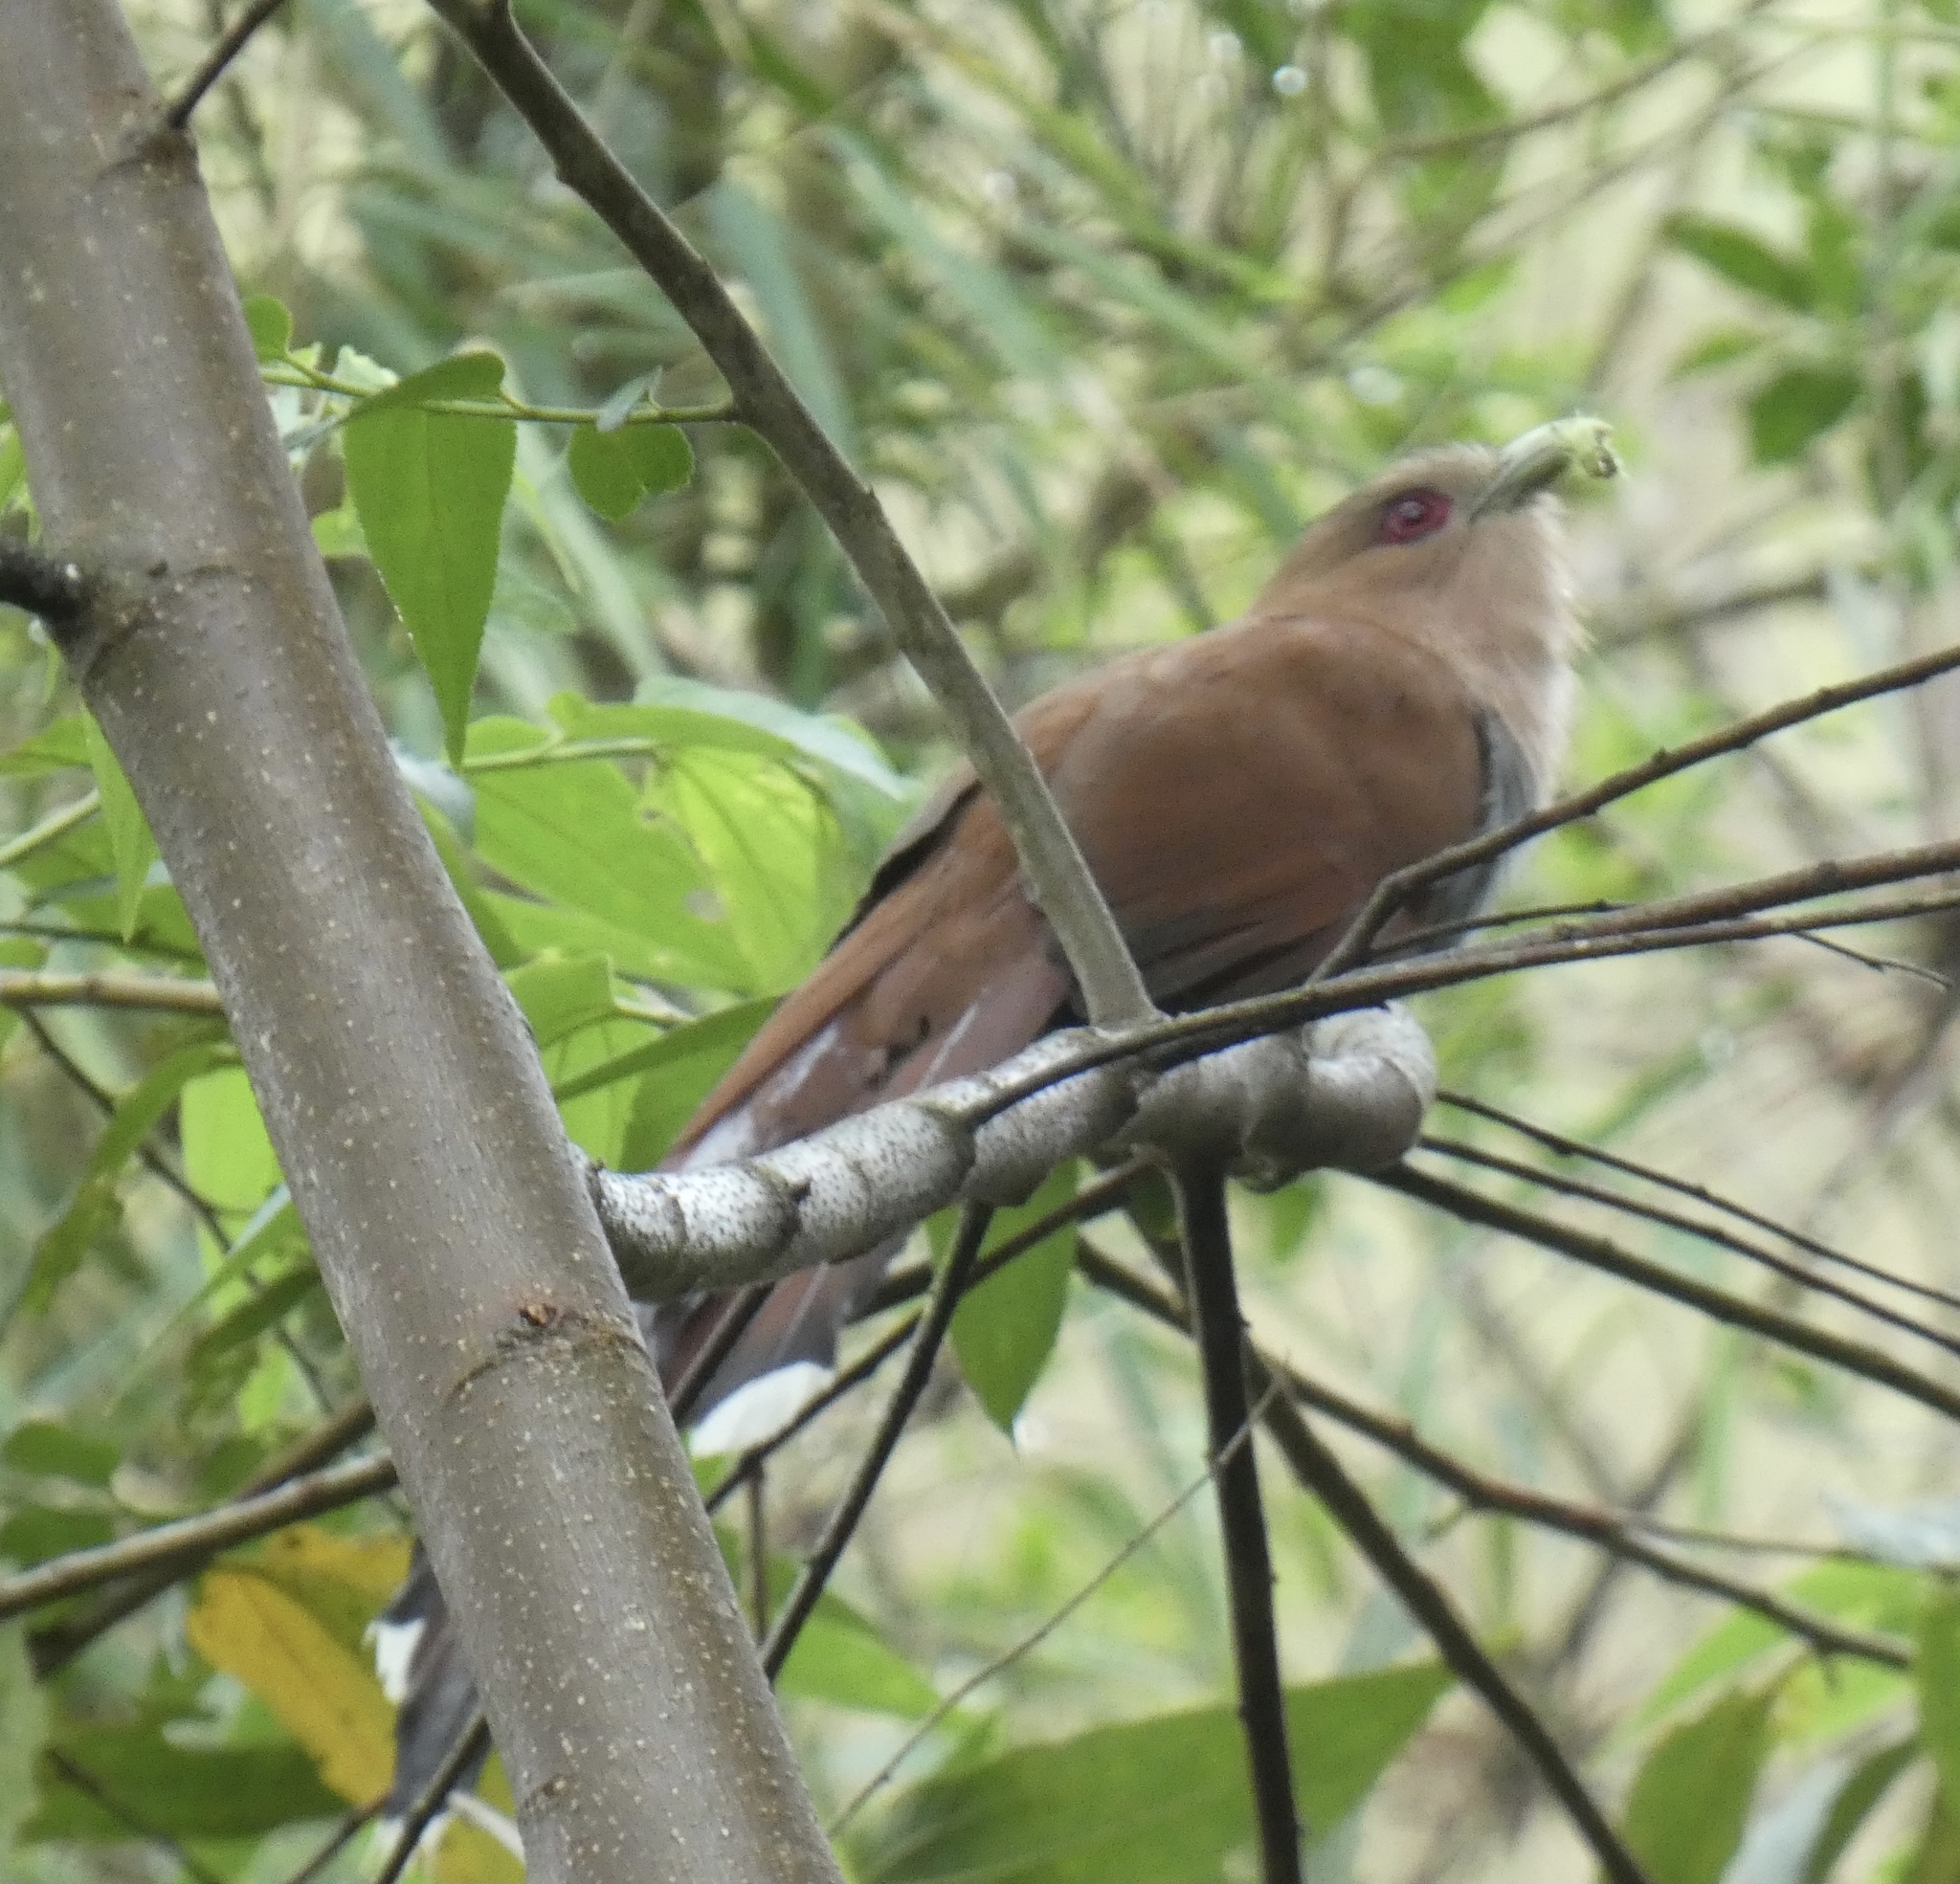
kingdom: Animalia
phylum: Chordata
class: Aves
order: Cuculiformes
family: Cuculidae
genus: Piaya
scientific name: Piaya cayana
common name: Squirrel cuckoo
